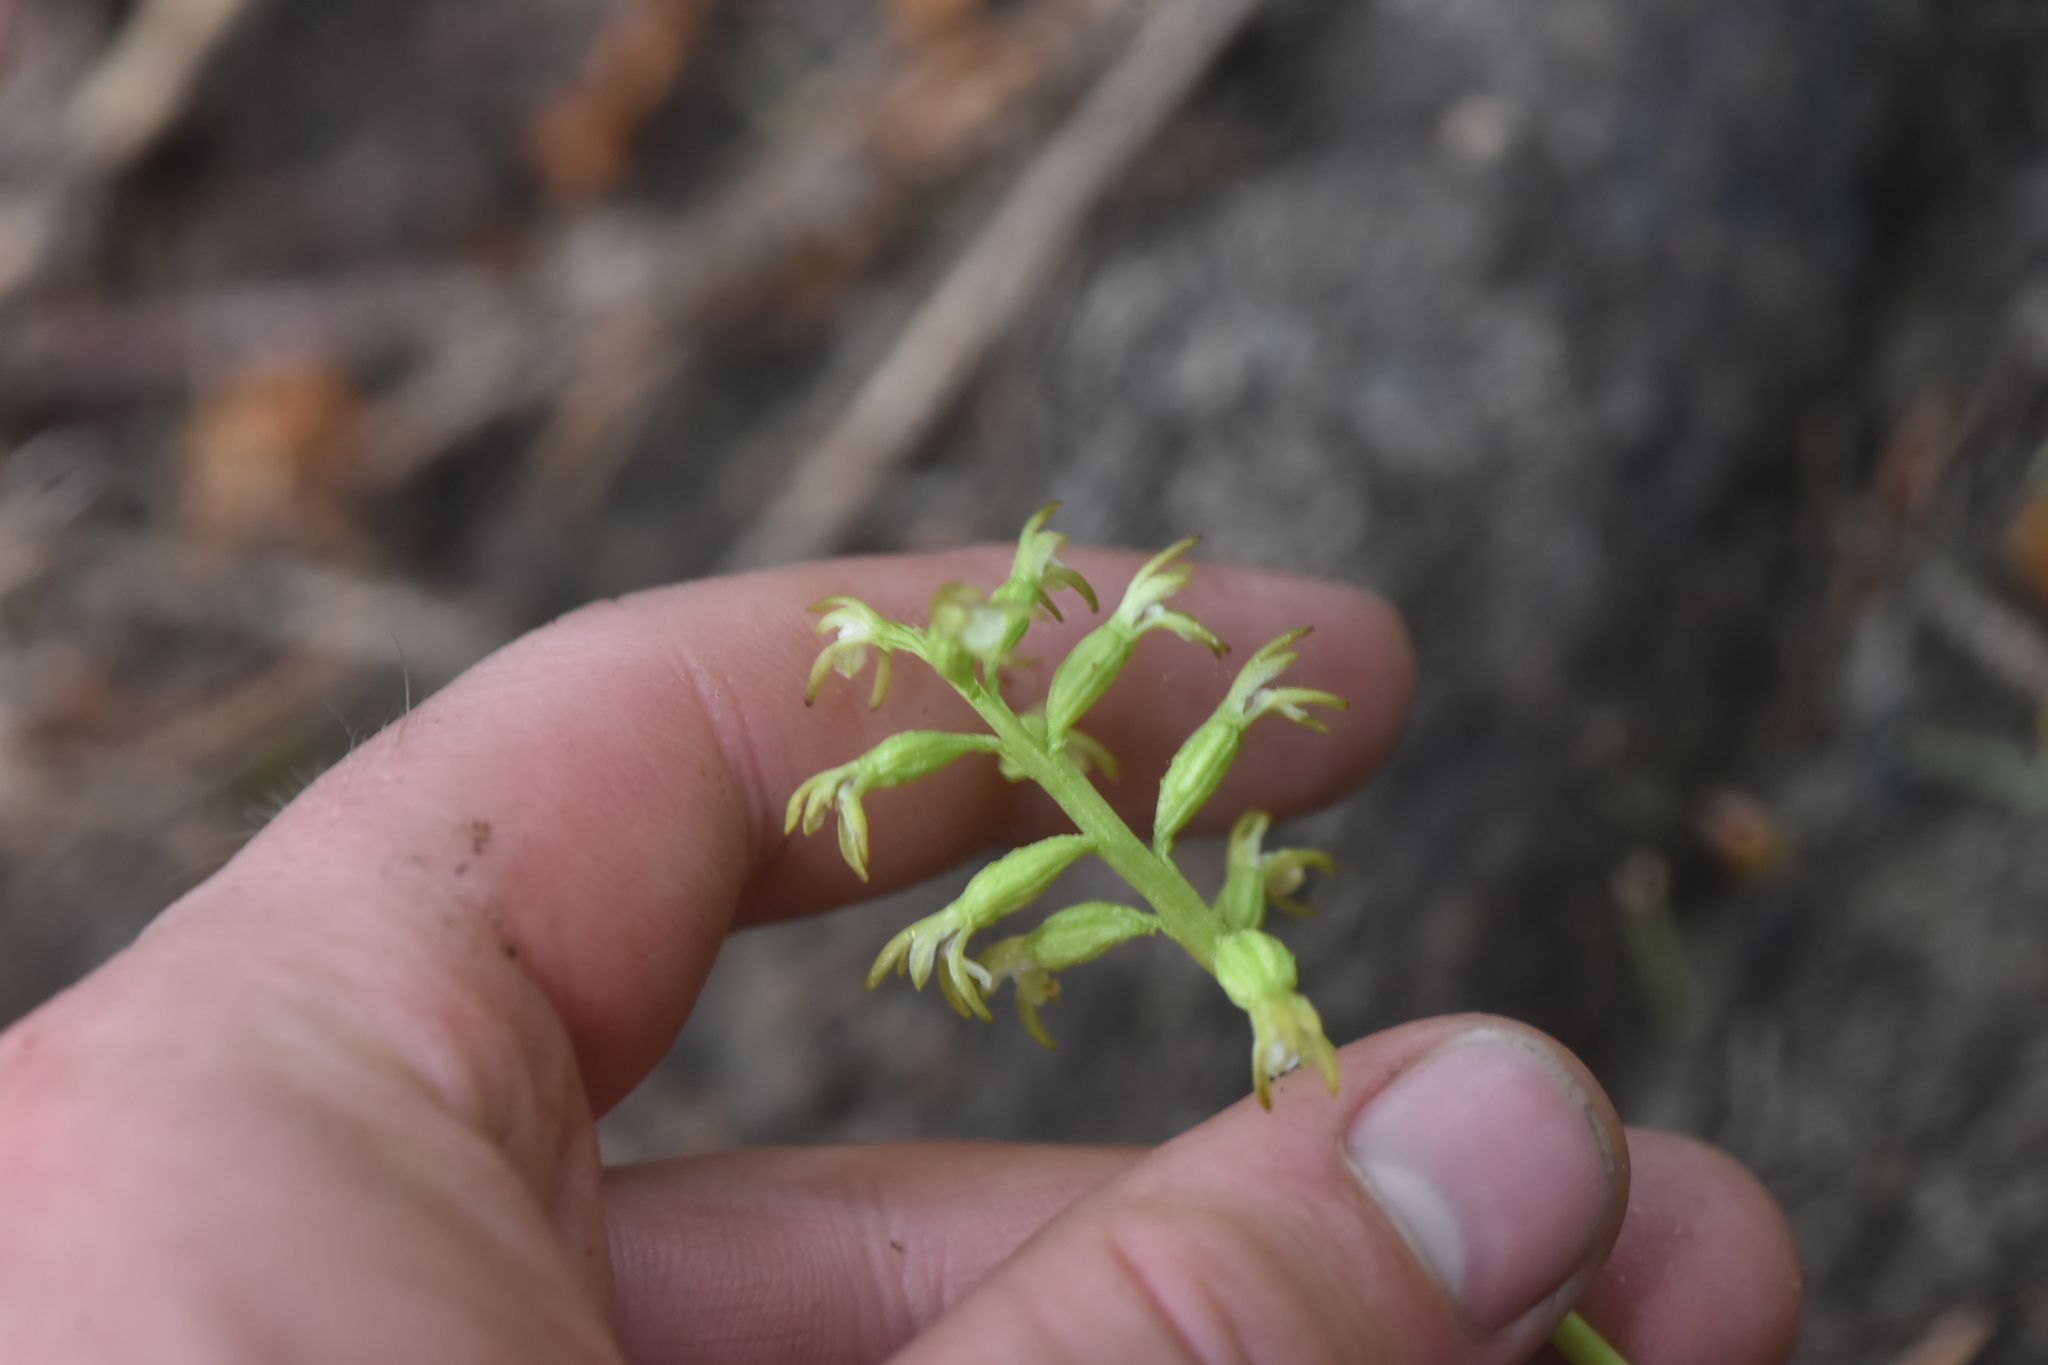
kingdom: Plantae
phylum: Tracheophyta
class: Liliopsida
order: Asparagales
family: Orchidaceae
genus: Corallorhiza
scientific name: Corallorhiza trifida
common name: Yellow coralroot
